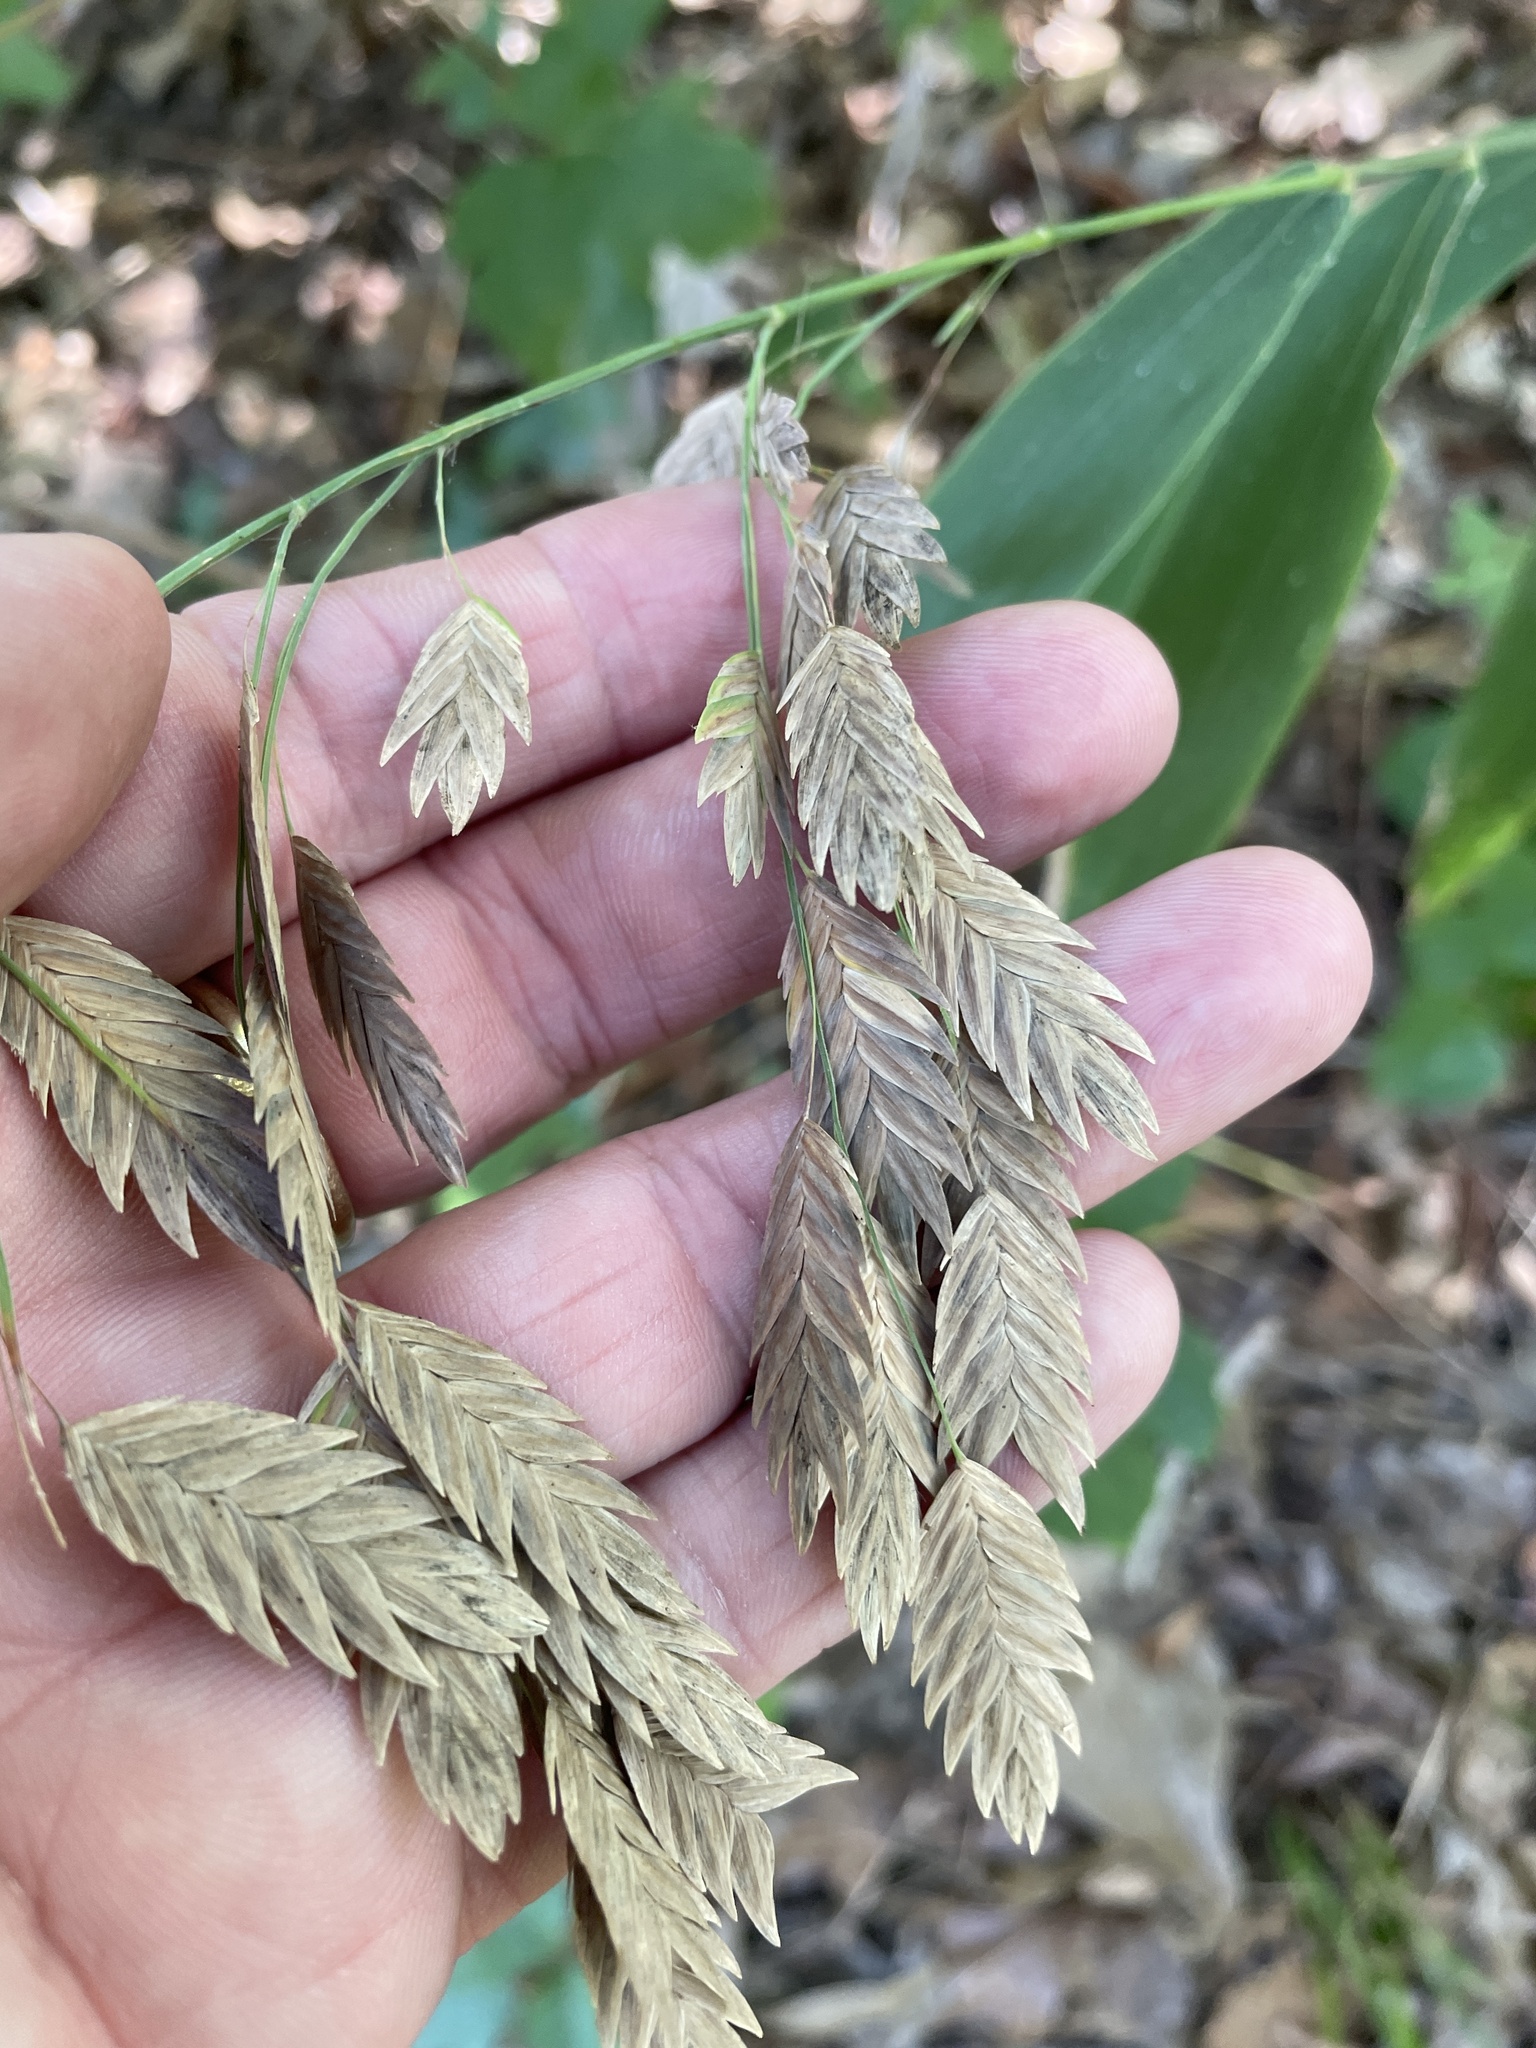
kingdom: Plantae
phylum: Tracheophyta
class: Liliopsida
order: Poales
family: Poaceae
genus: Chasmanthium
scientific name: Chasmanthium latifolium
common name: Broad-leaved chasmanthium
